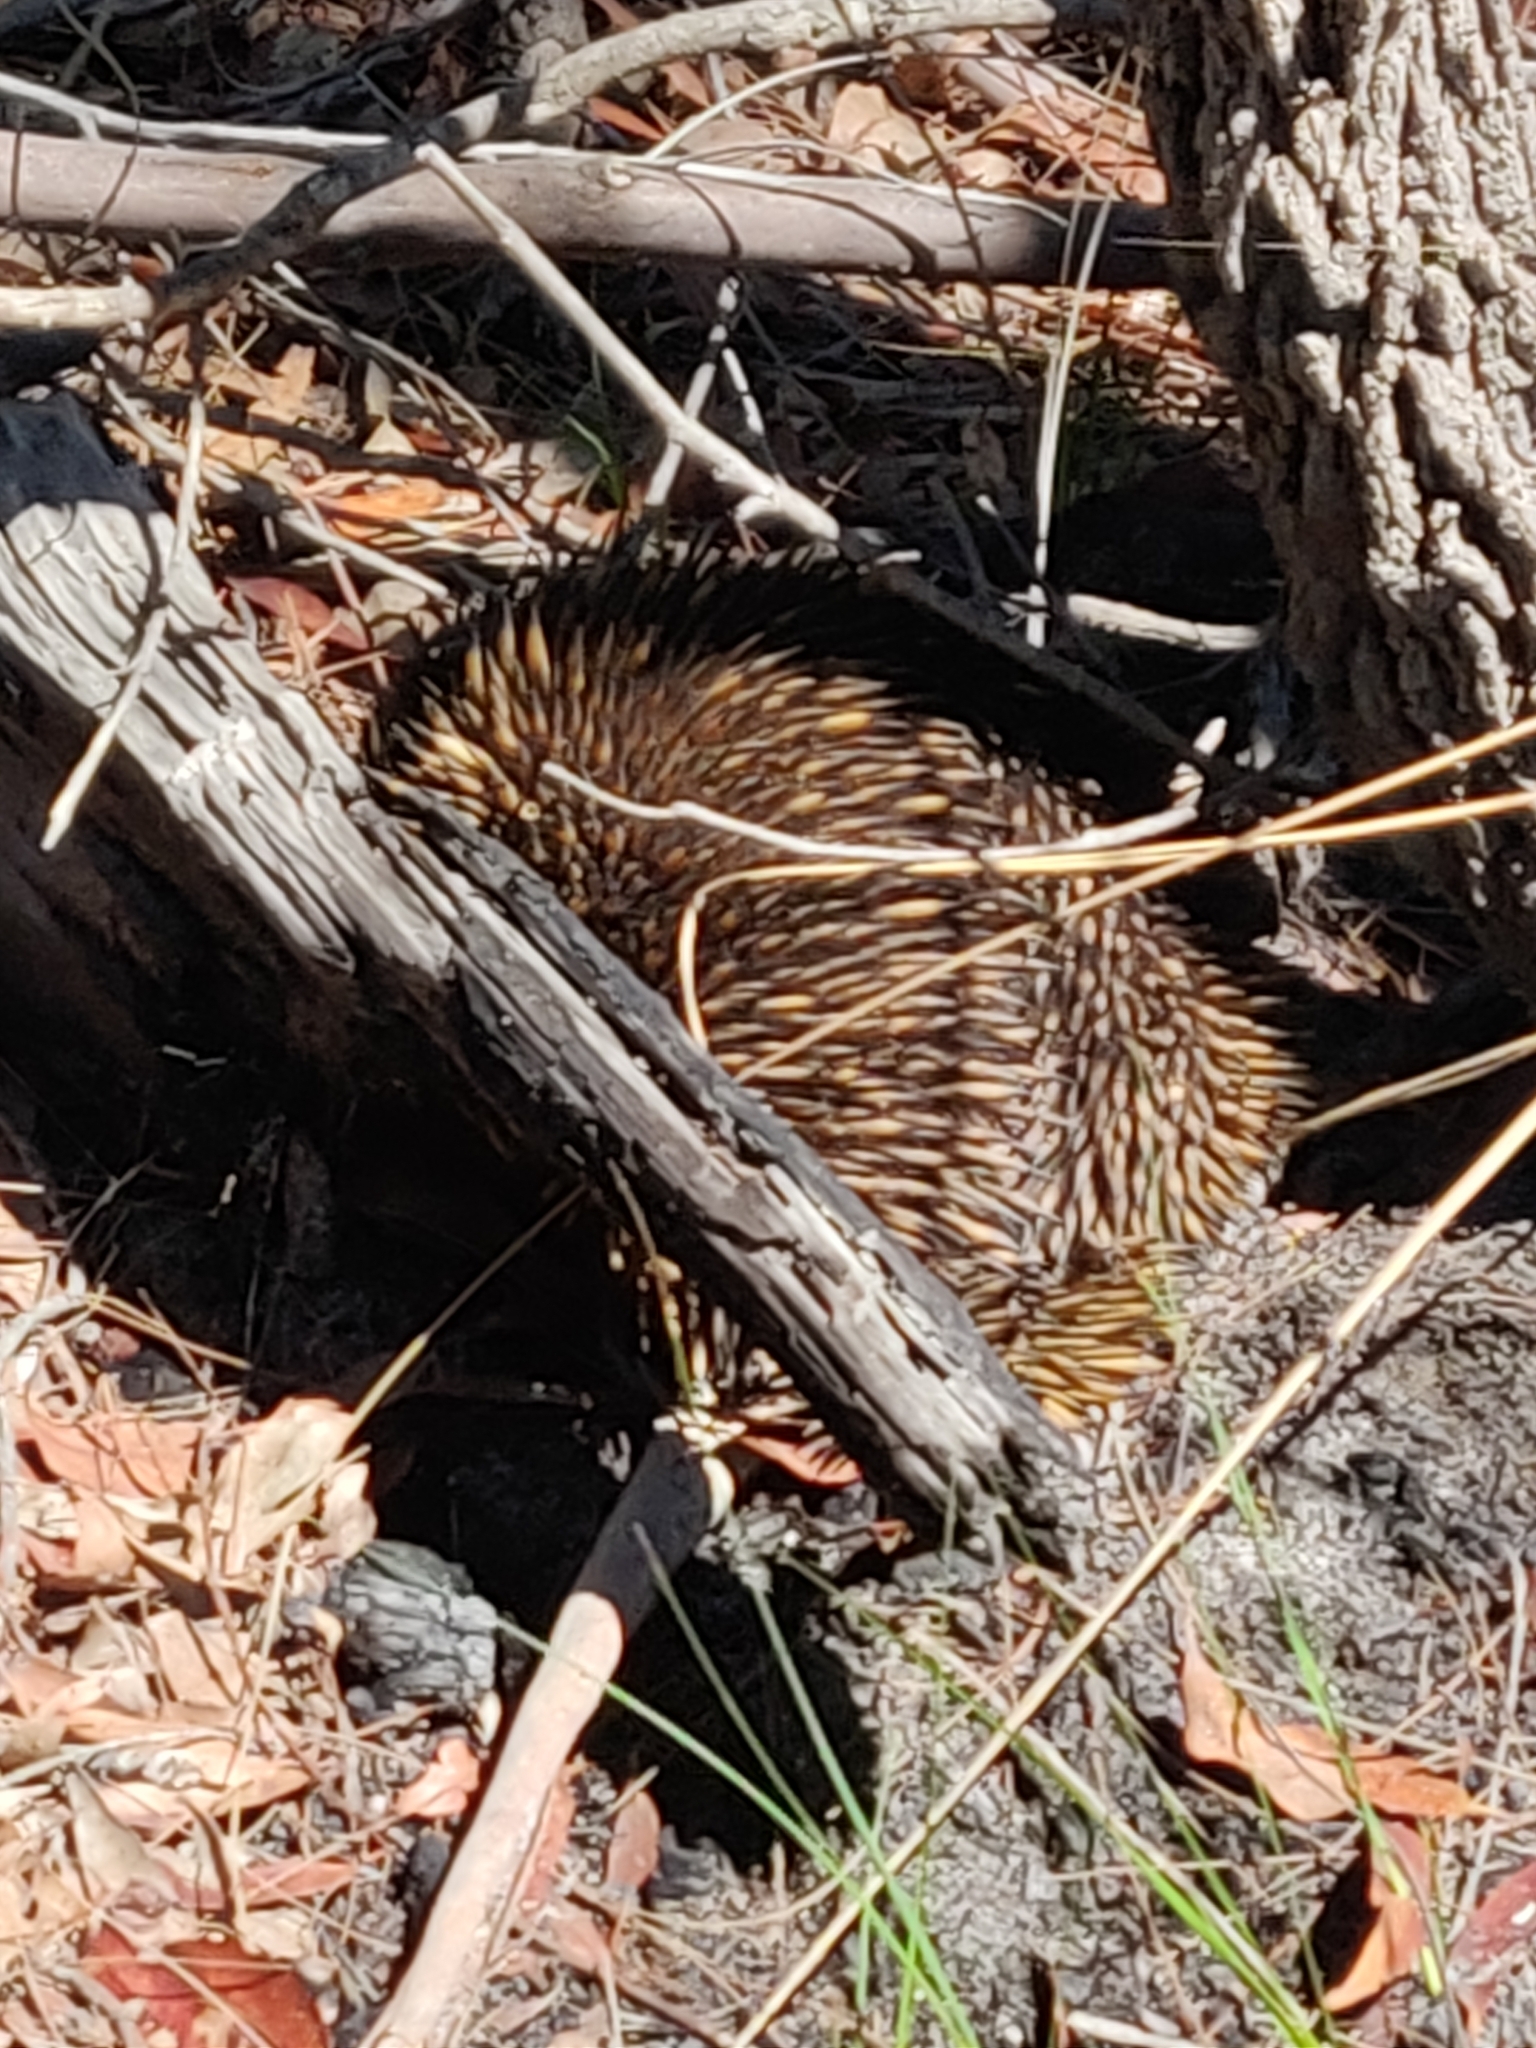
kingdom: Animalia
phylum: Chordata
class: Mammalia
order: Monotremata
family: Tachyglossidae
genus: Tachyglossus
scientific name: Tachyglossus aculeatus
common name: Short-beaked echidna
